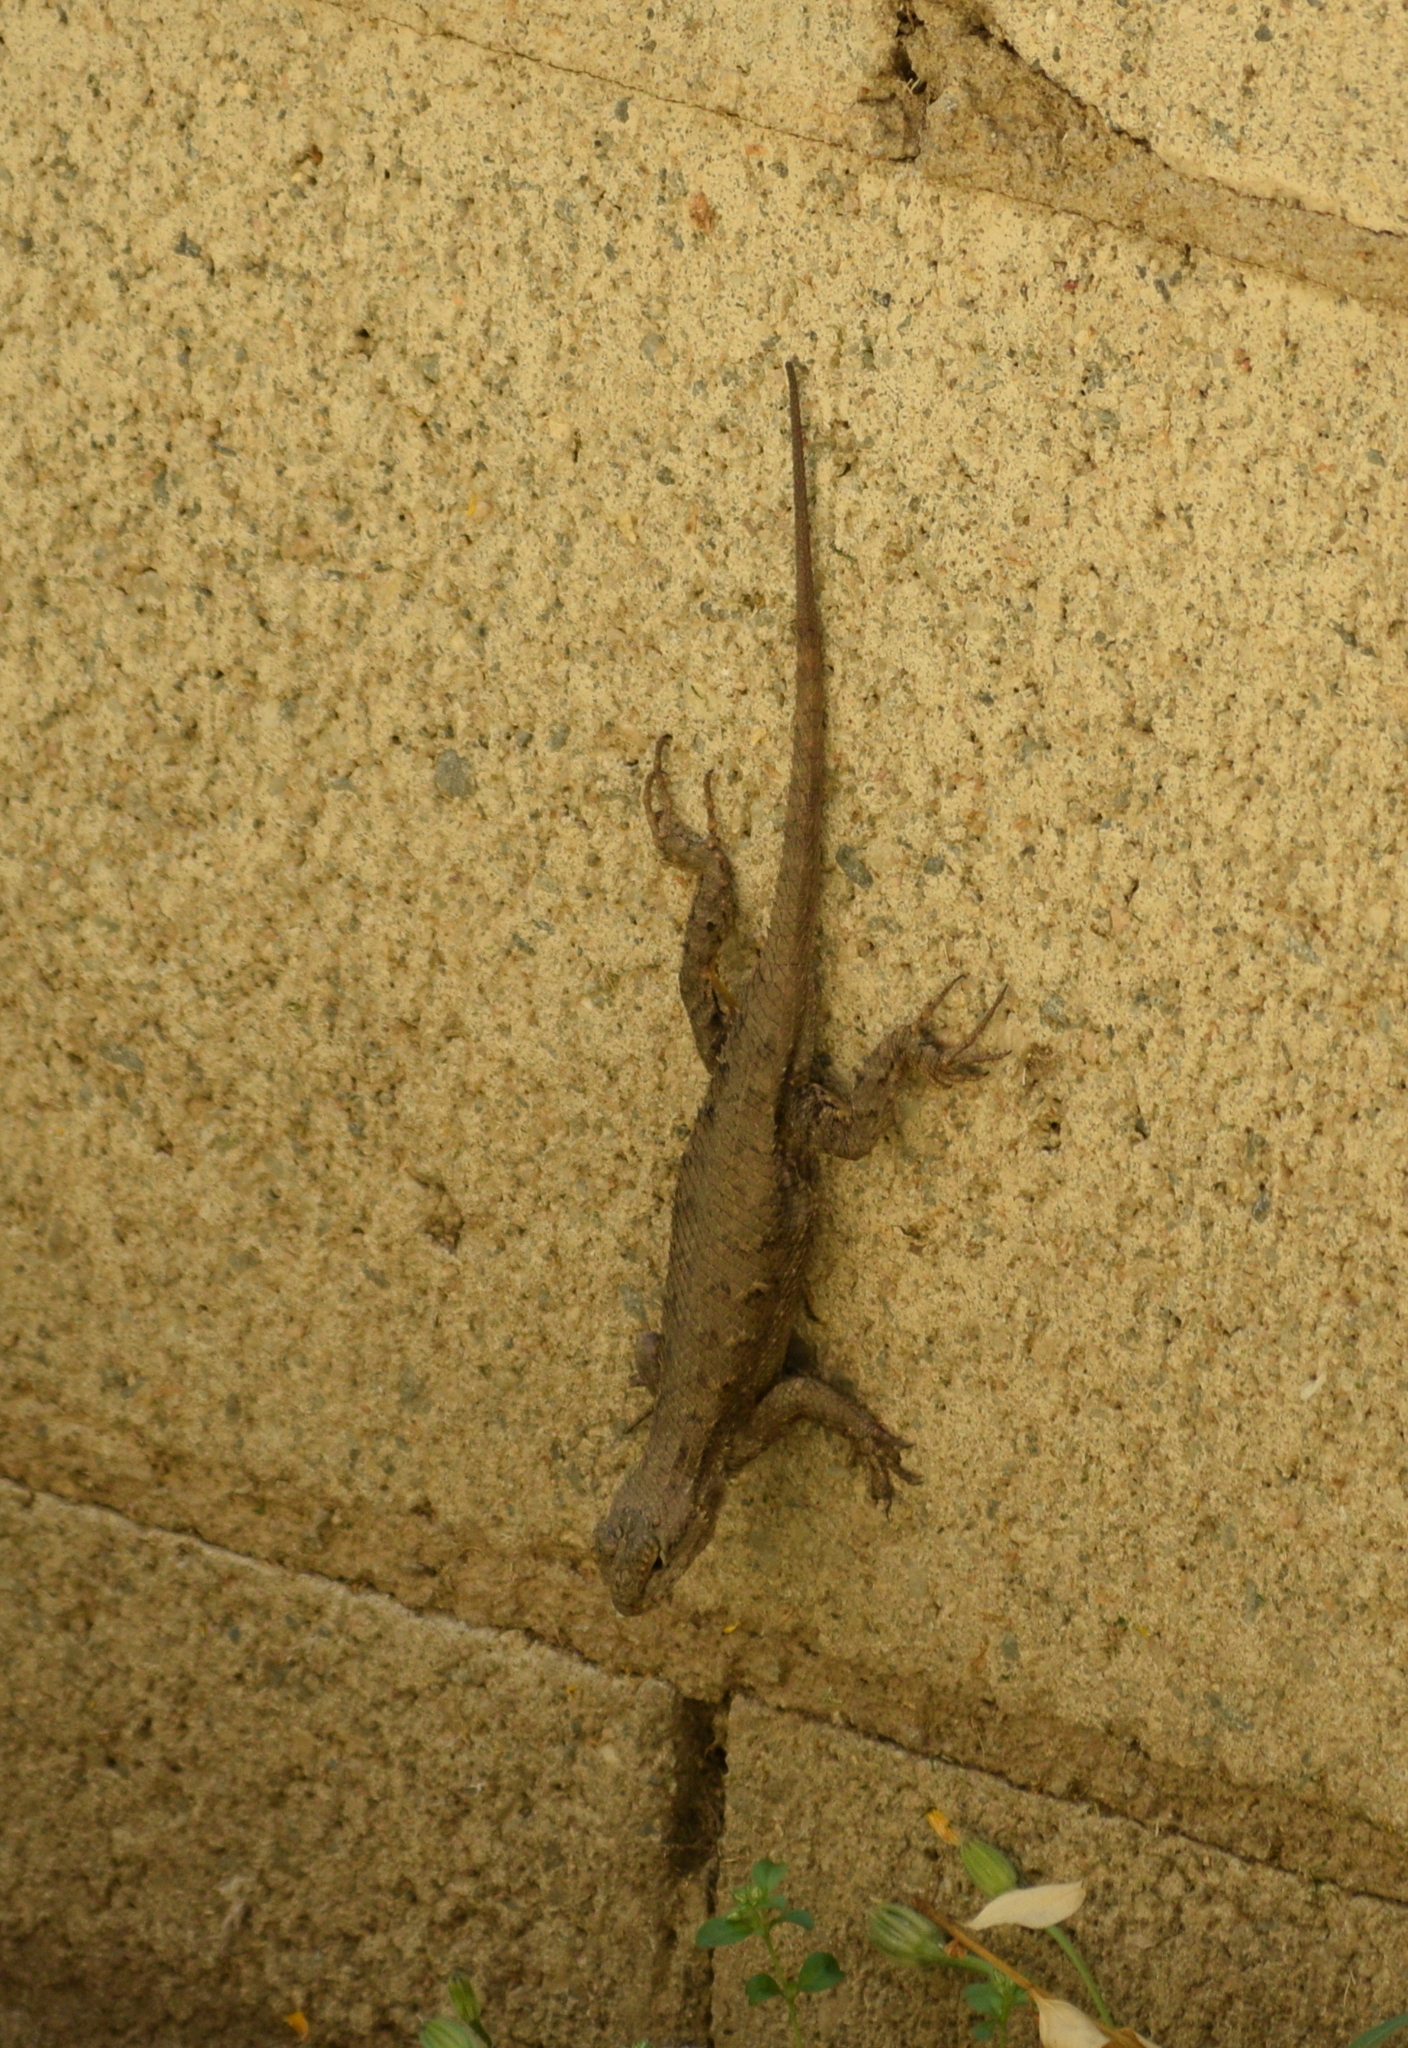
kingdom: Animalia
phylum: Chordata
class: Squamata
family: Phrynosomatidae
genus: Sceloporus
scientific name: Sceloporus occidentalis
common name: Western fence lizard
